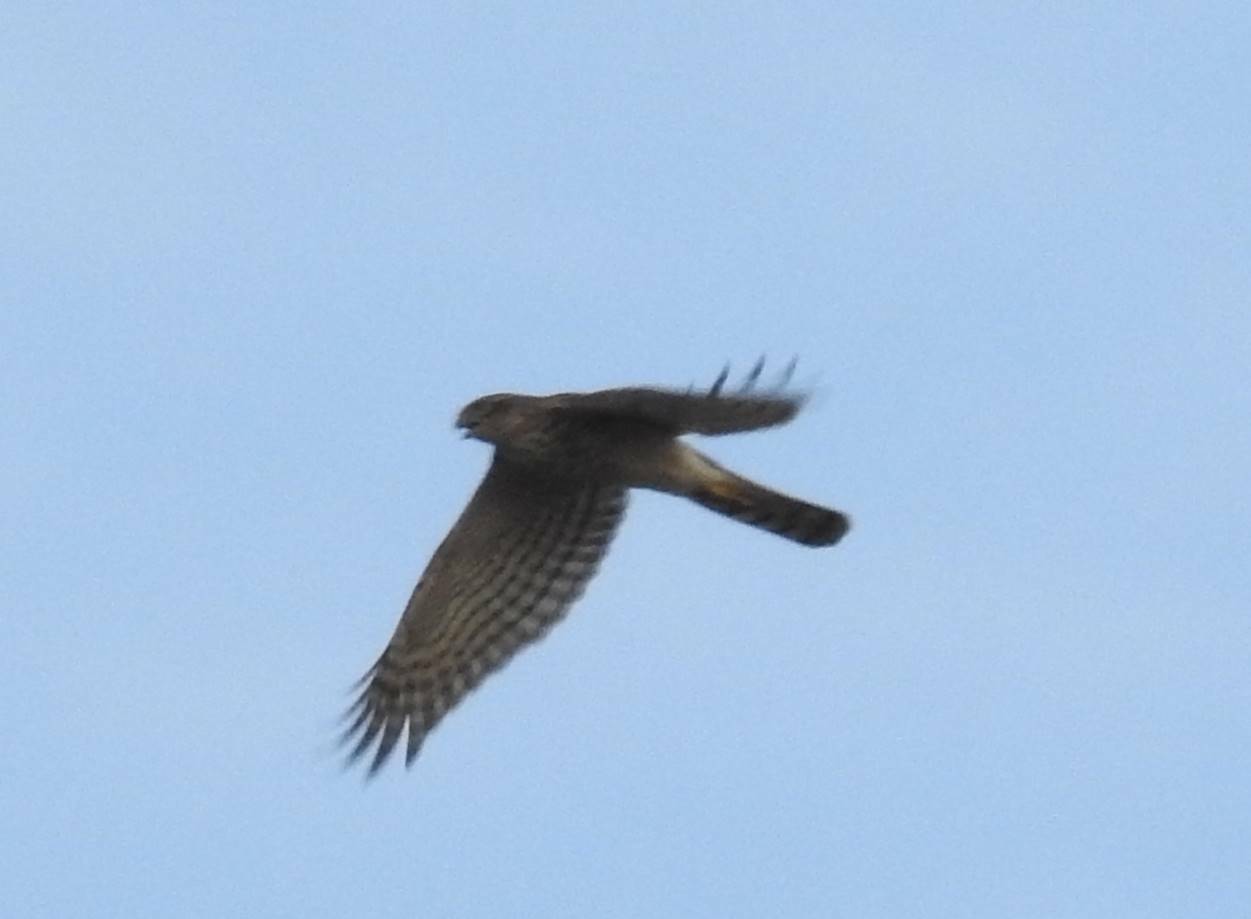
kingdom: Animalia
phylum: Chordata
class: Aves
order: Accipitriformes
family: Accipitridae
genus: Accipiter
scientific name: Accipiter nisus
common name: Eurasian sparrowhawk
